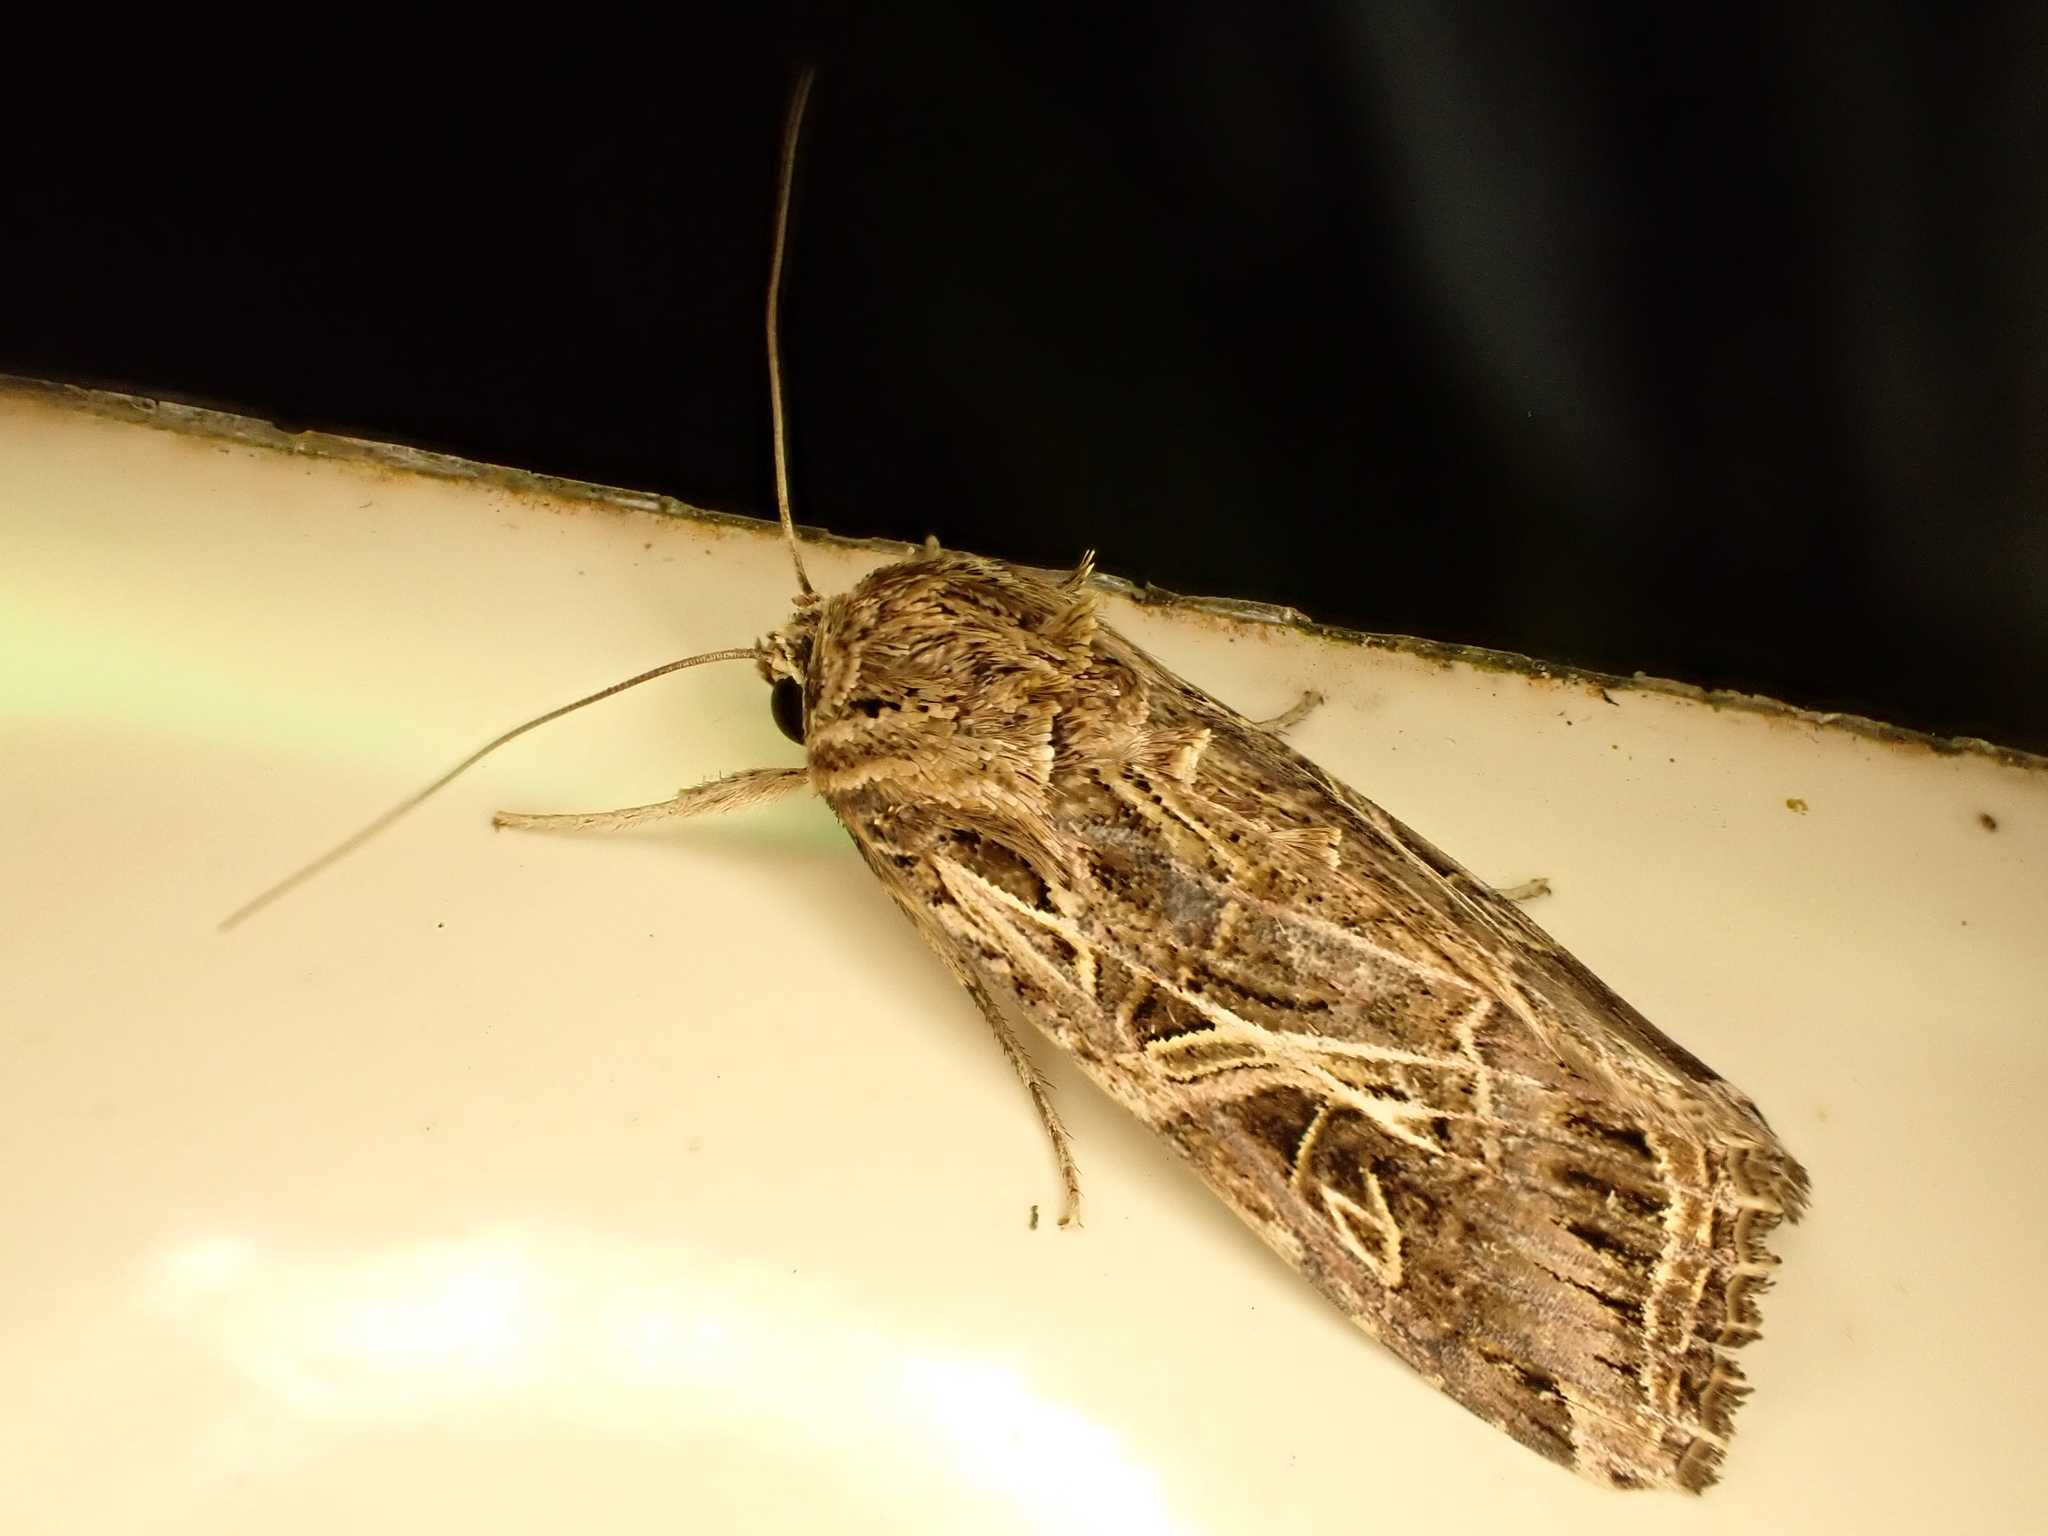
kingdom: Animalia
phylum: Arthropoda
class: Insecta
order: Lepidoptera
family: Noctuidae
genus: Spodoptera
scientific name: Spodoptera litura
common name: Asian cotton leafworm
